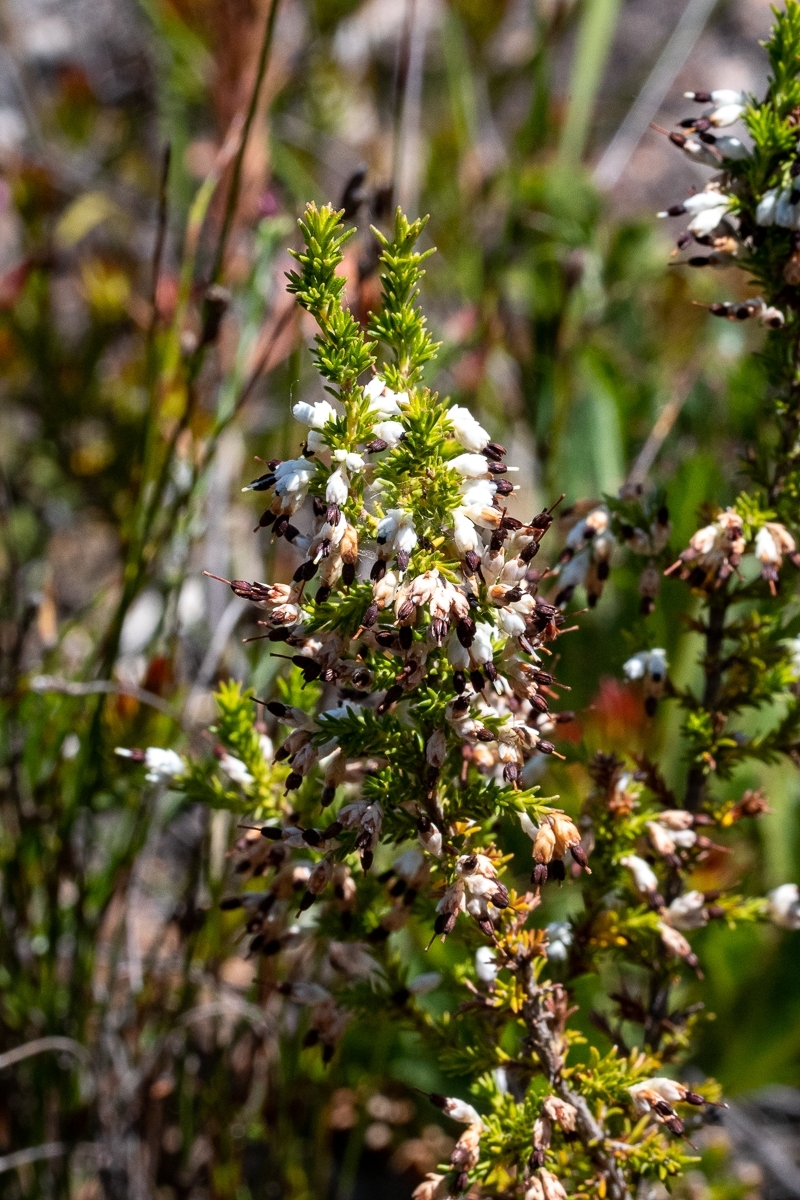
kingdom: Plantae
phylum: Tracheophyta
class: Magnoliopsida
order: Ericales
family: Ericaceae
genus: Erica
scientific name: Erica imbricata
